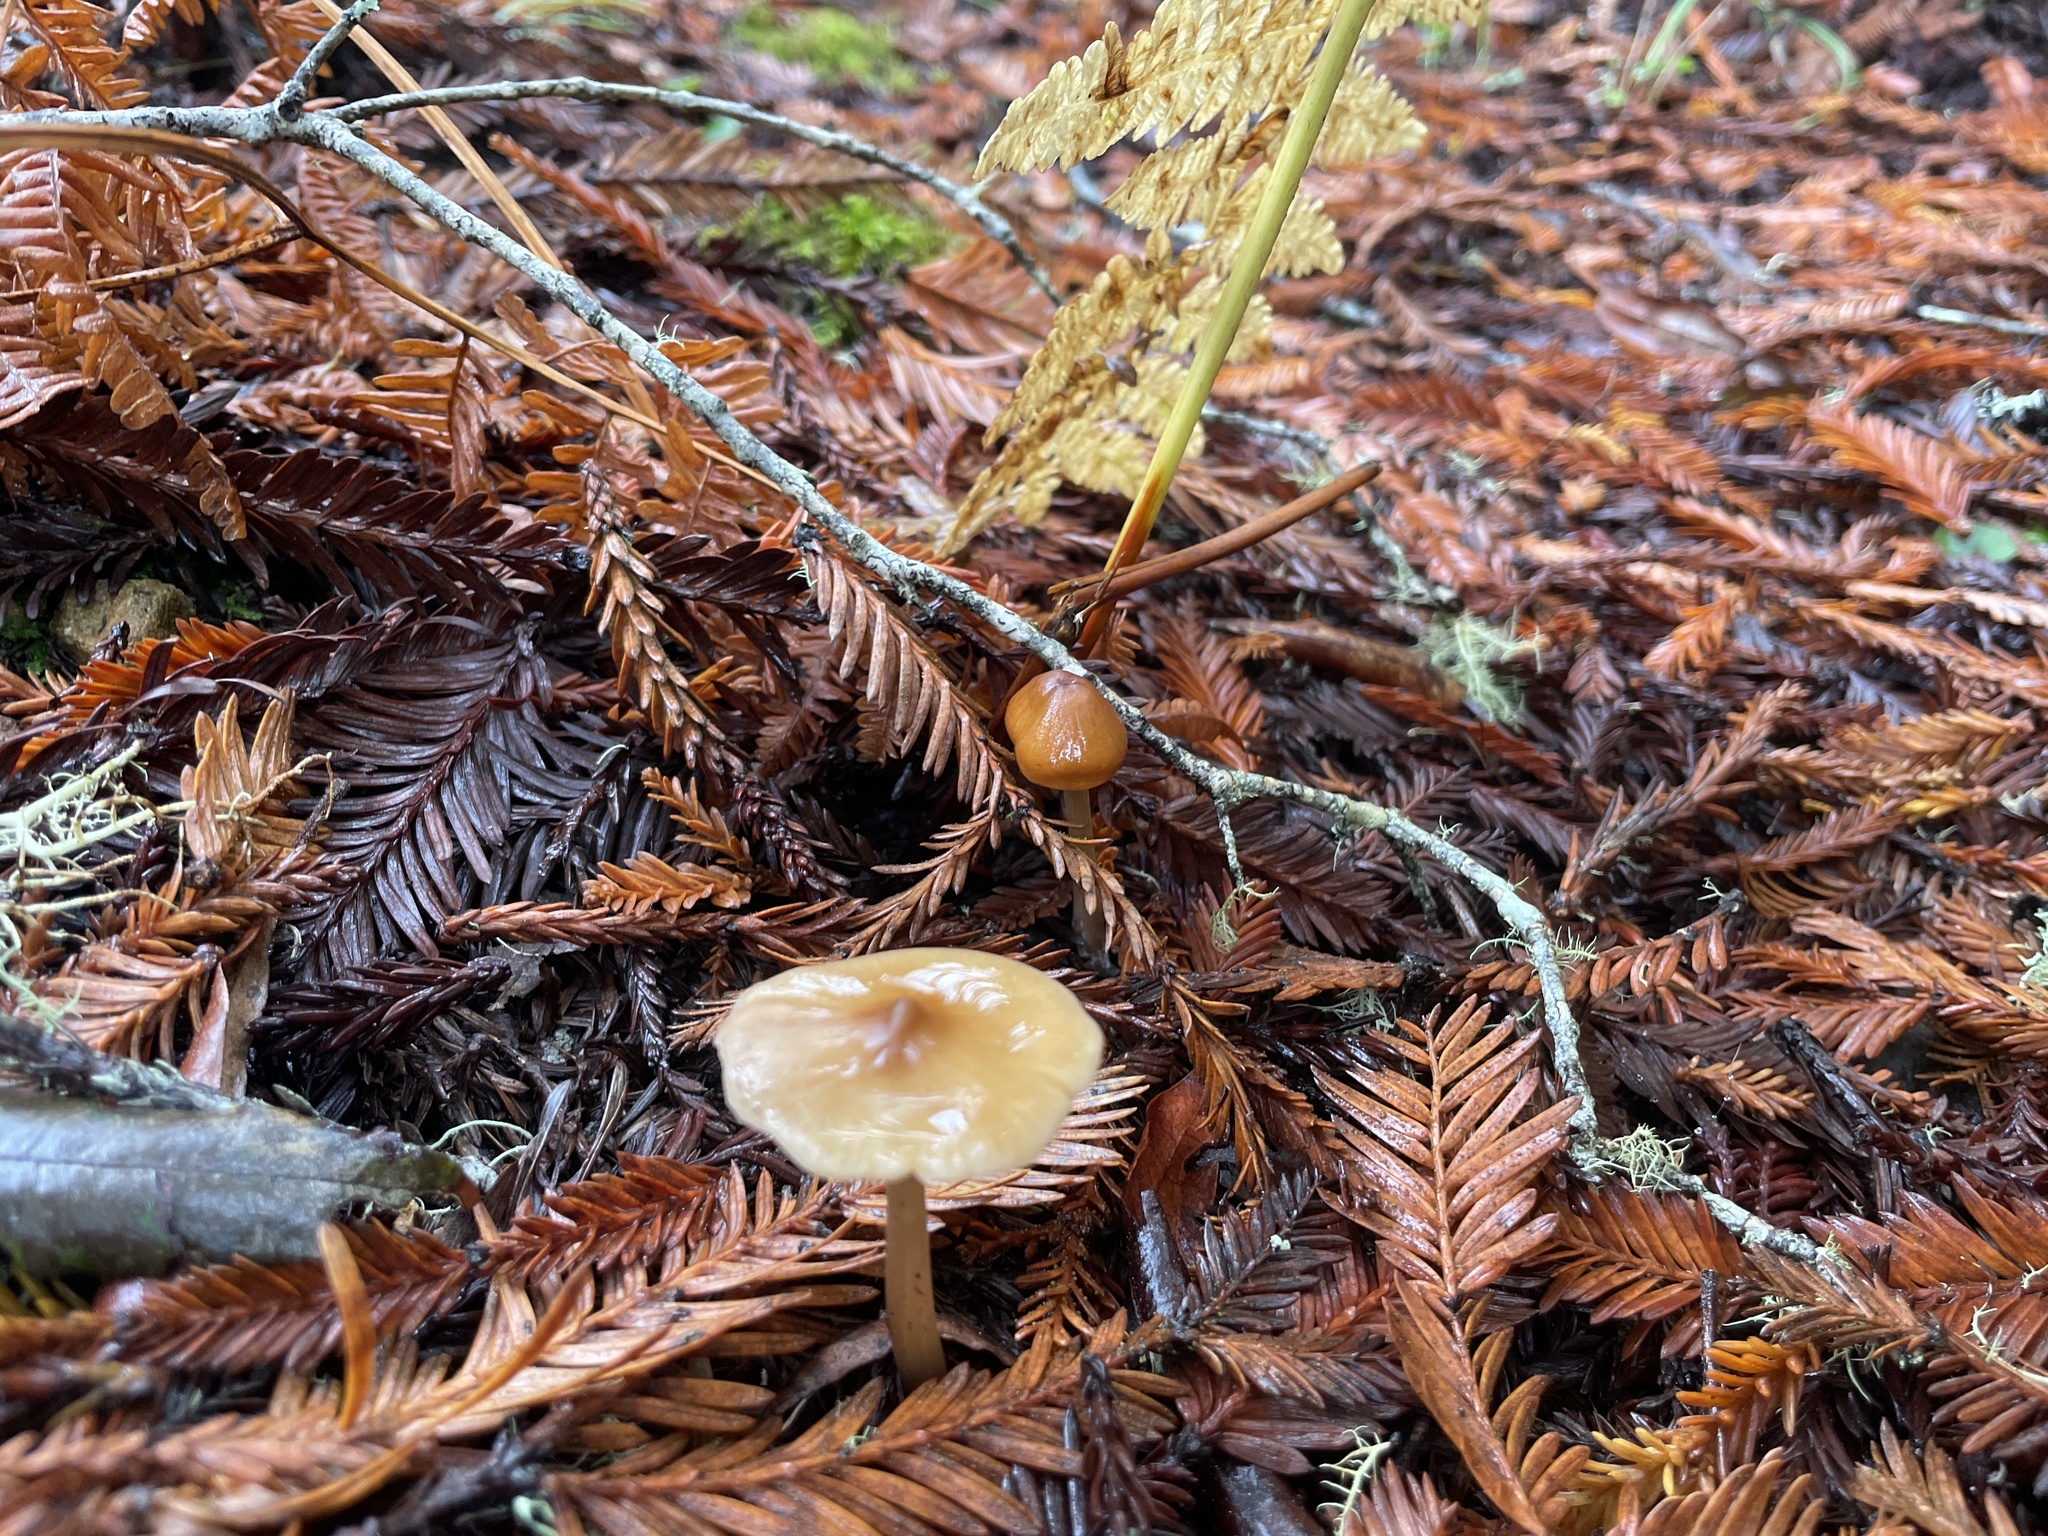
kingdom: Fungi
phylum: Basidiomycota
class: Agaricomycetes
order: Agaricales
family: Tricholomataceae
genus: Caulorhiza
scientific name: Caulorhiza umbonata
